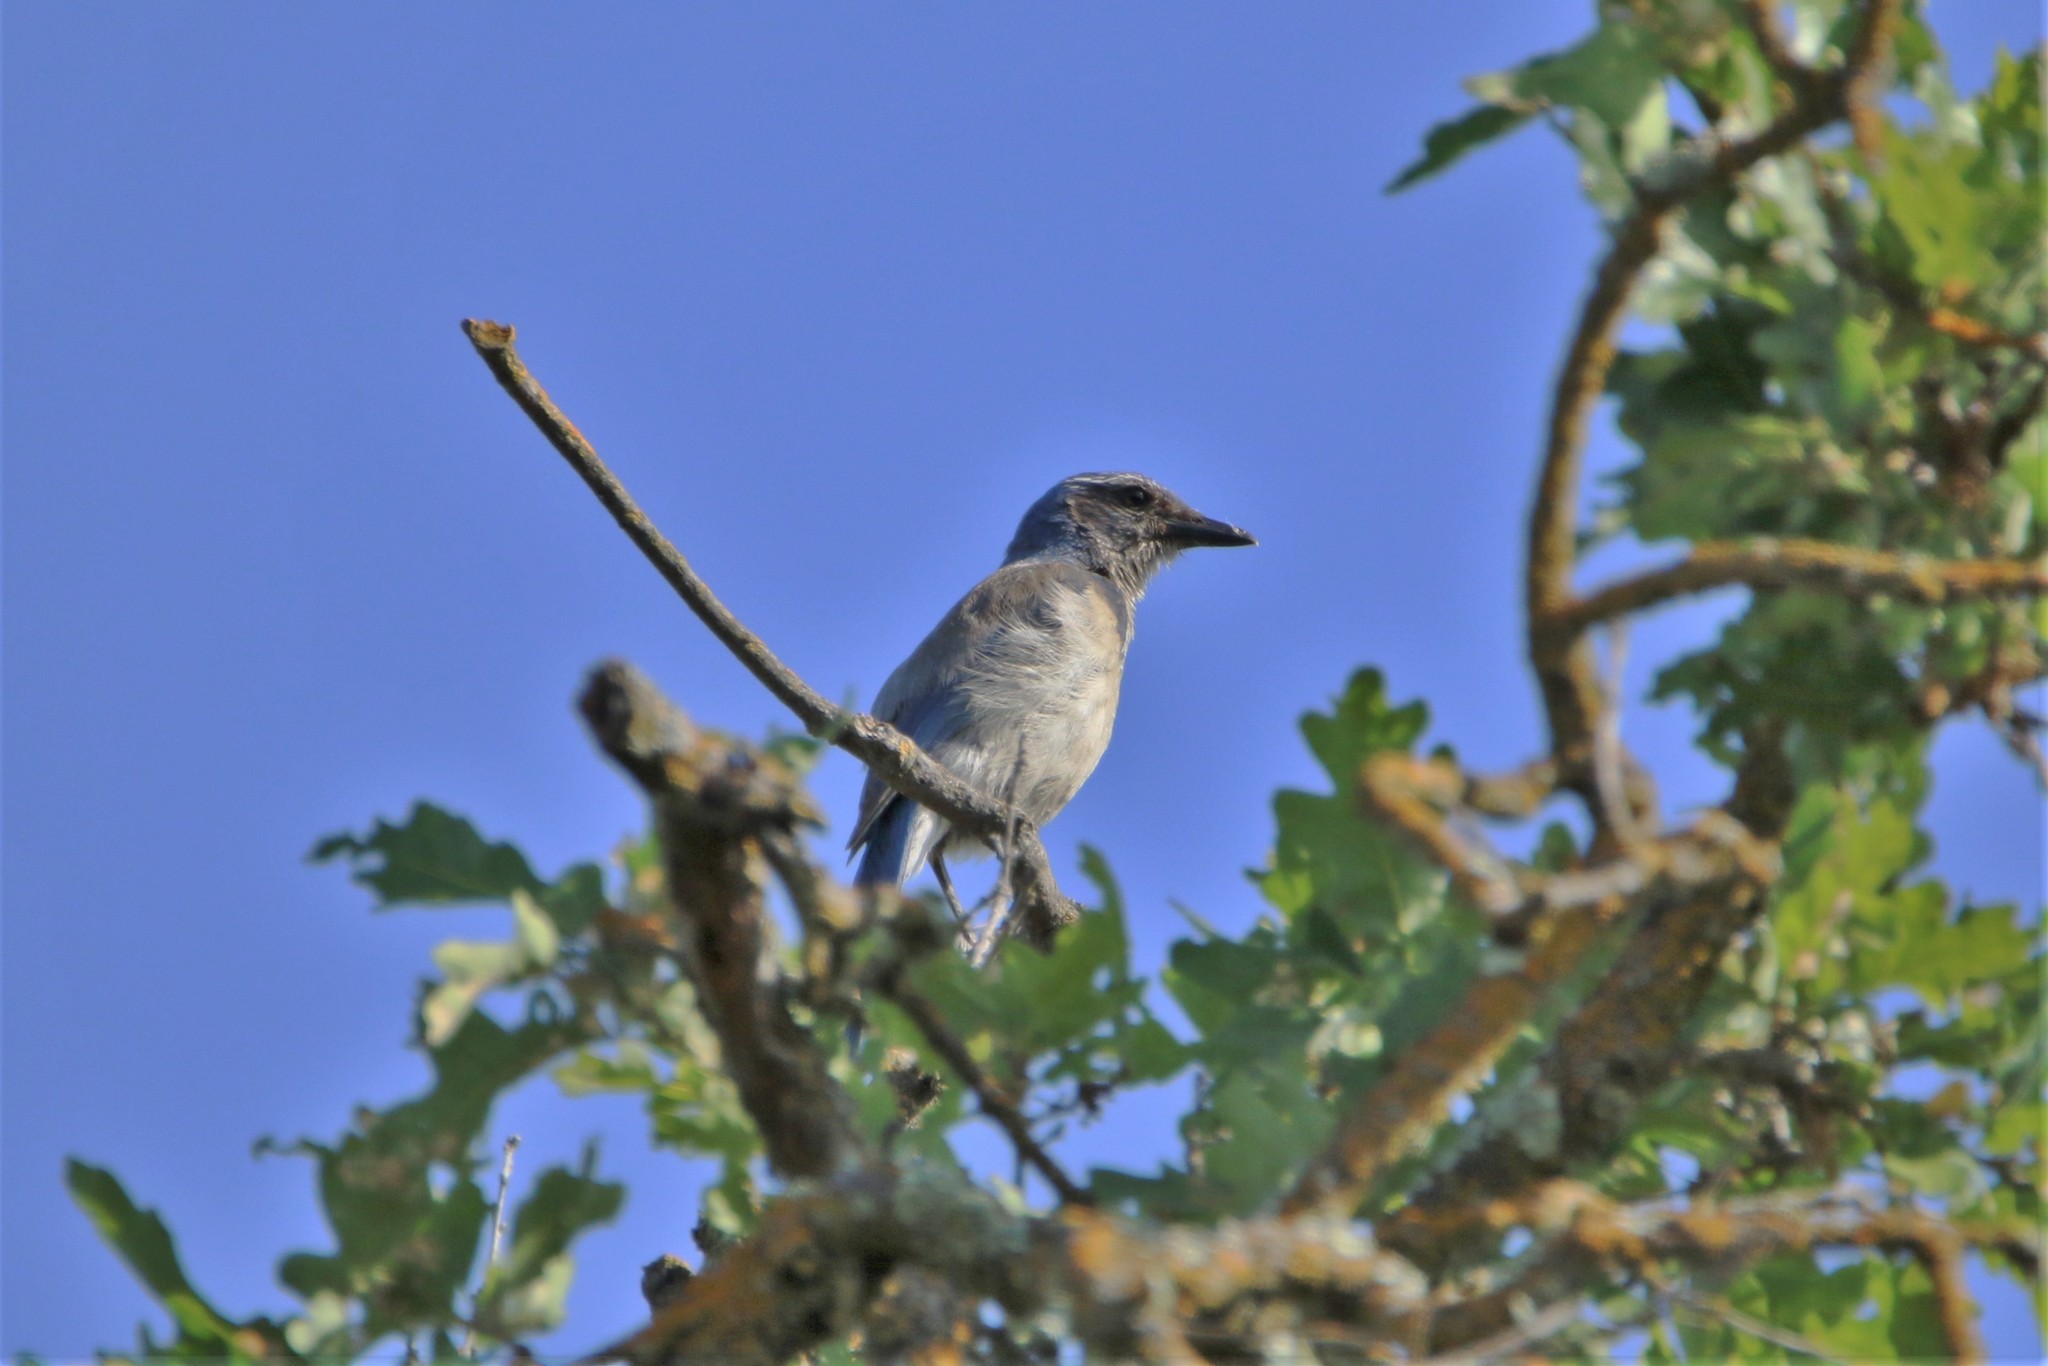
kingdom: Animalia
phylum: Chordata
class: Aves
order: Passeriformes
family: Corvidae
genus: Aphelocoma
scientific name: Aphelocoma californica
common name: California scrub-jay
